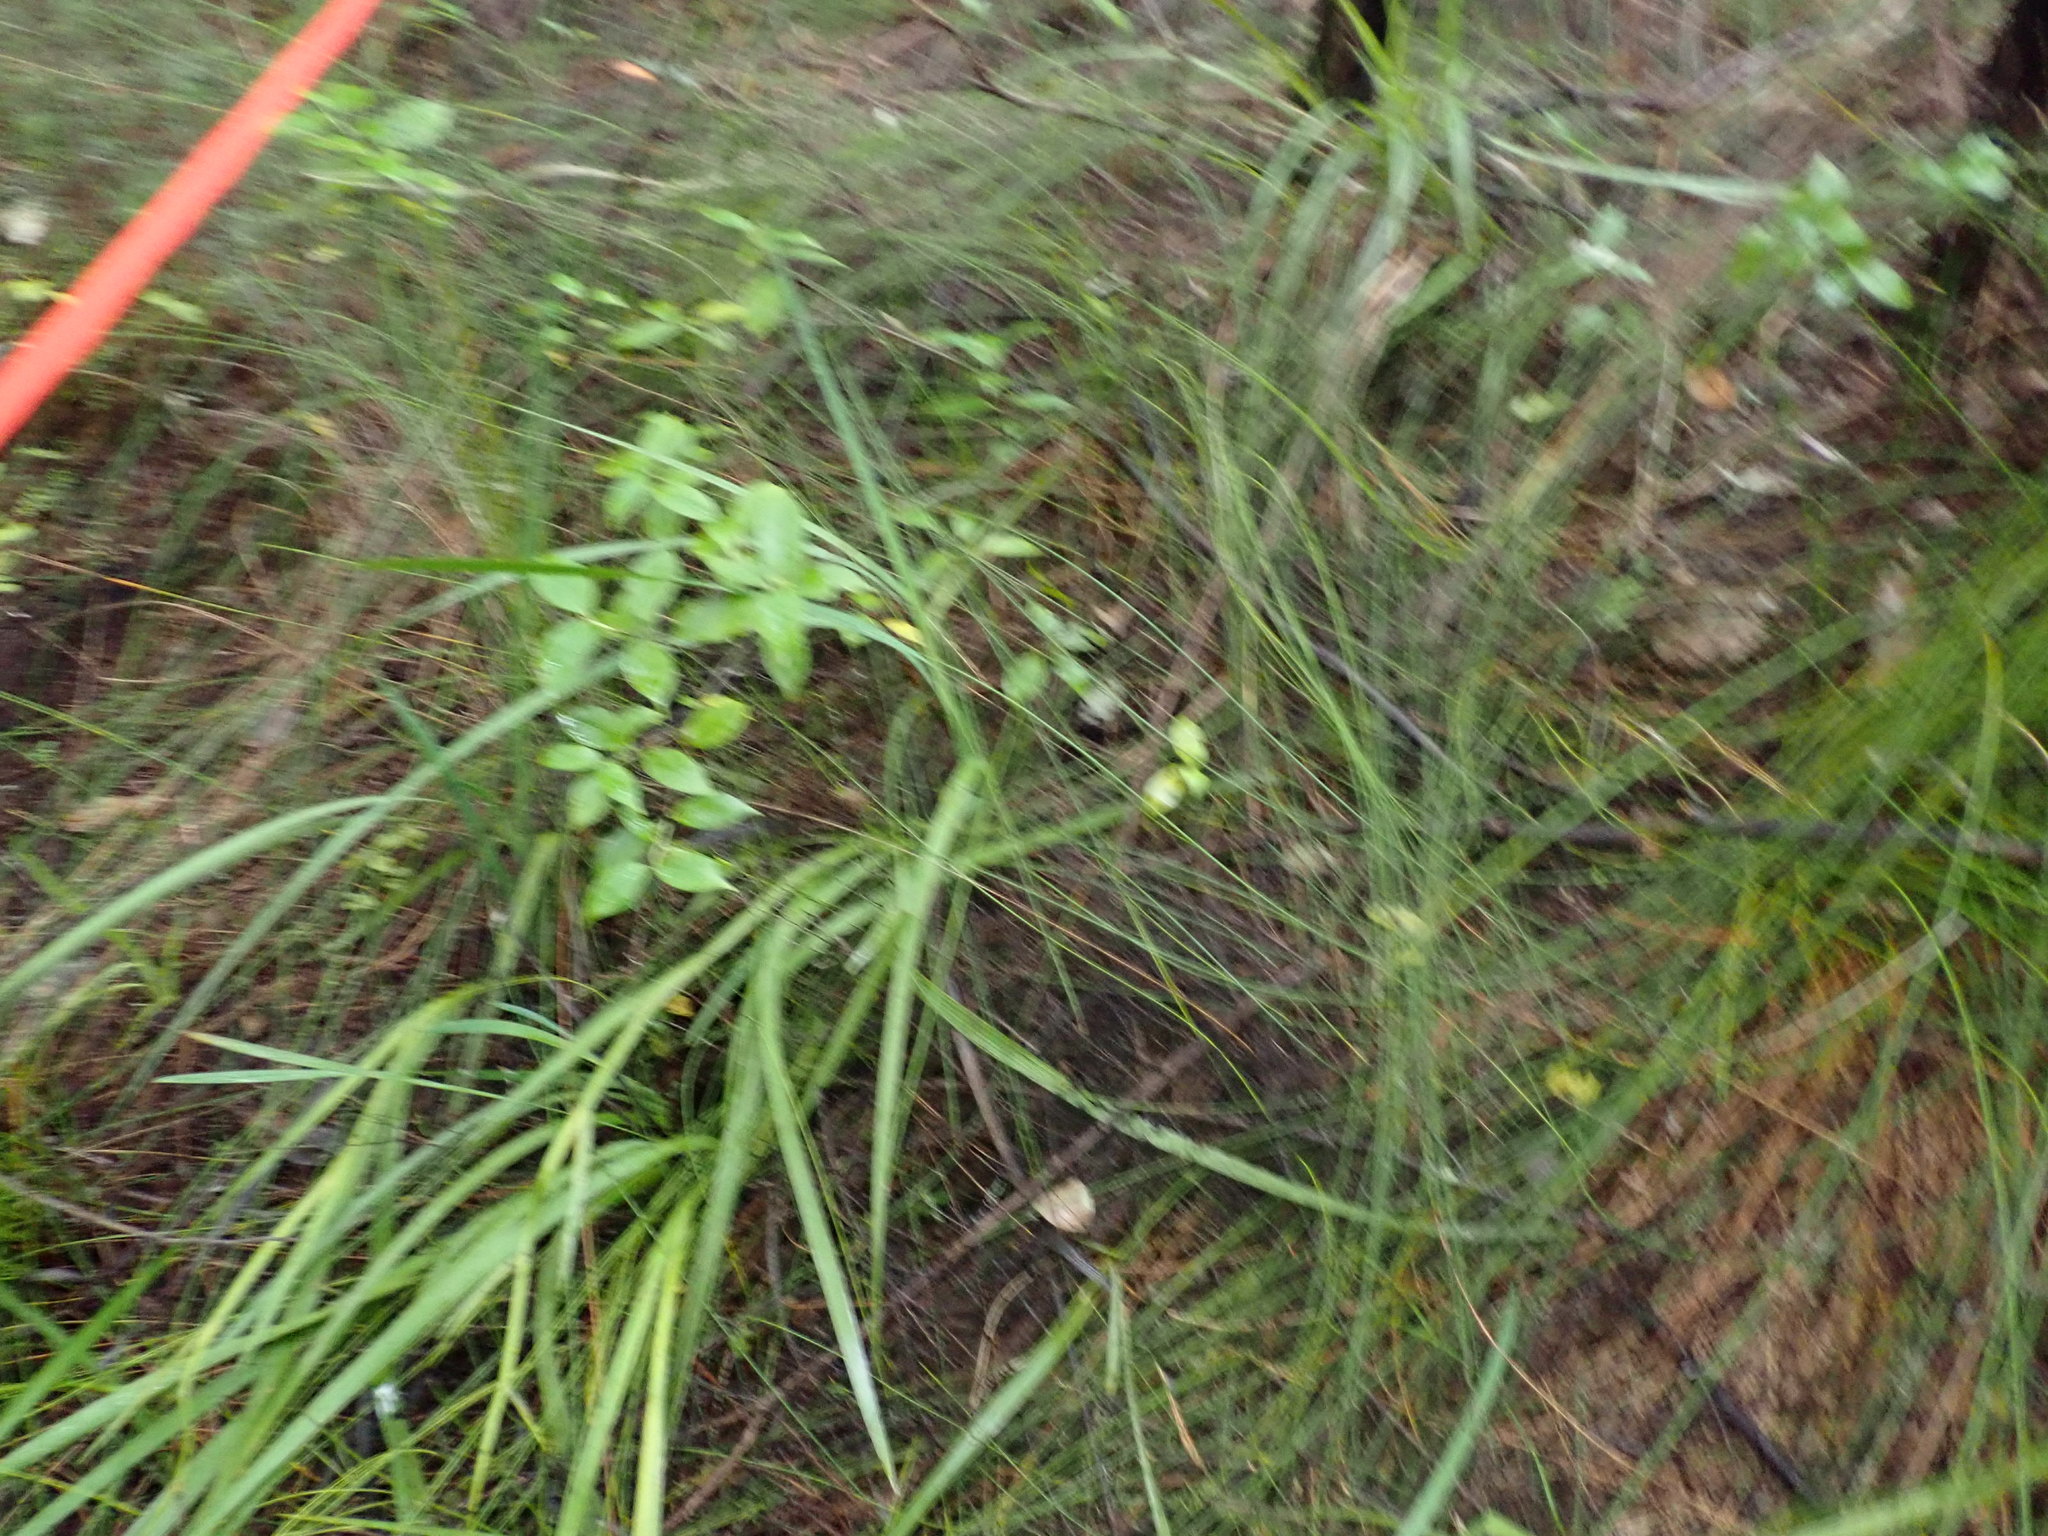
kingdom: Plantae
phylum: Tracheophyta
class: Magnoliopsida
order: Gentianales
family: Loganiaceae
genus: Geniostoma
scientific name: Geniostoma ligustrifolium
